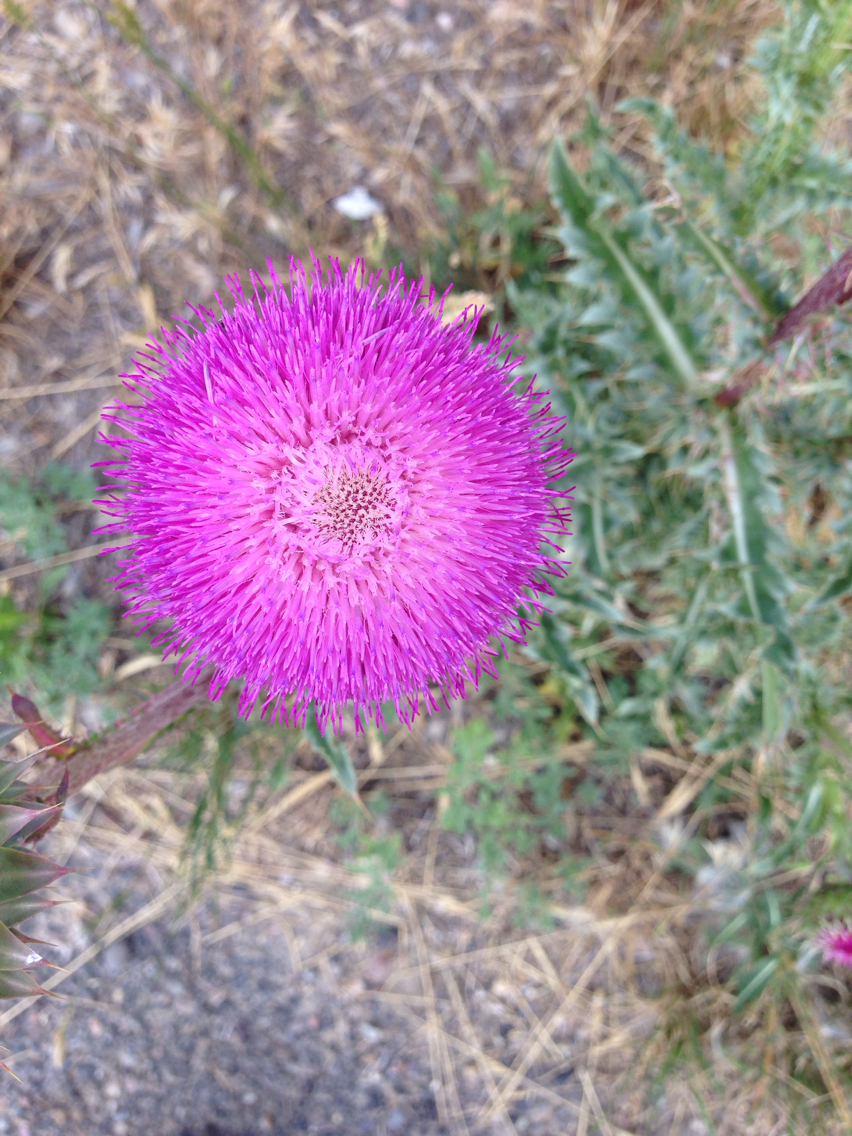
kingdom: Plantae
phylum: Tracheophyta
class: Magnoliopsida
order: Asterales
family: Asteraceae
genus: Carduus
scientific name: Carduus nutans
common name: Musk thistle
